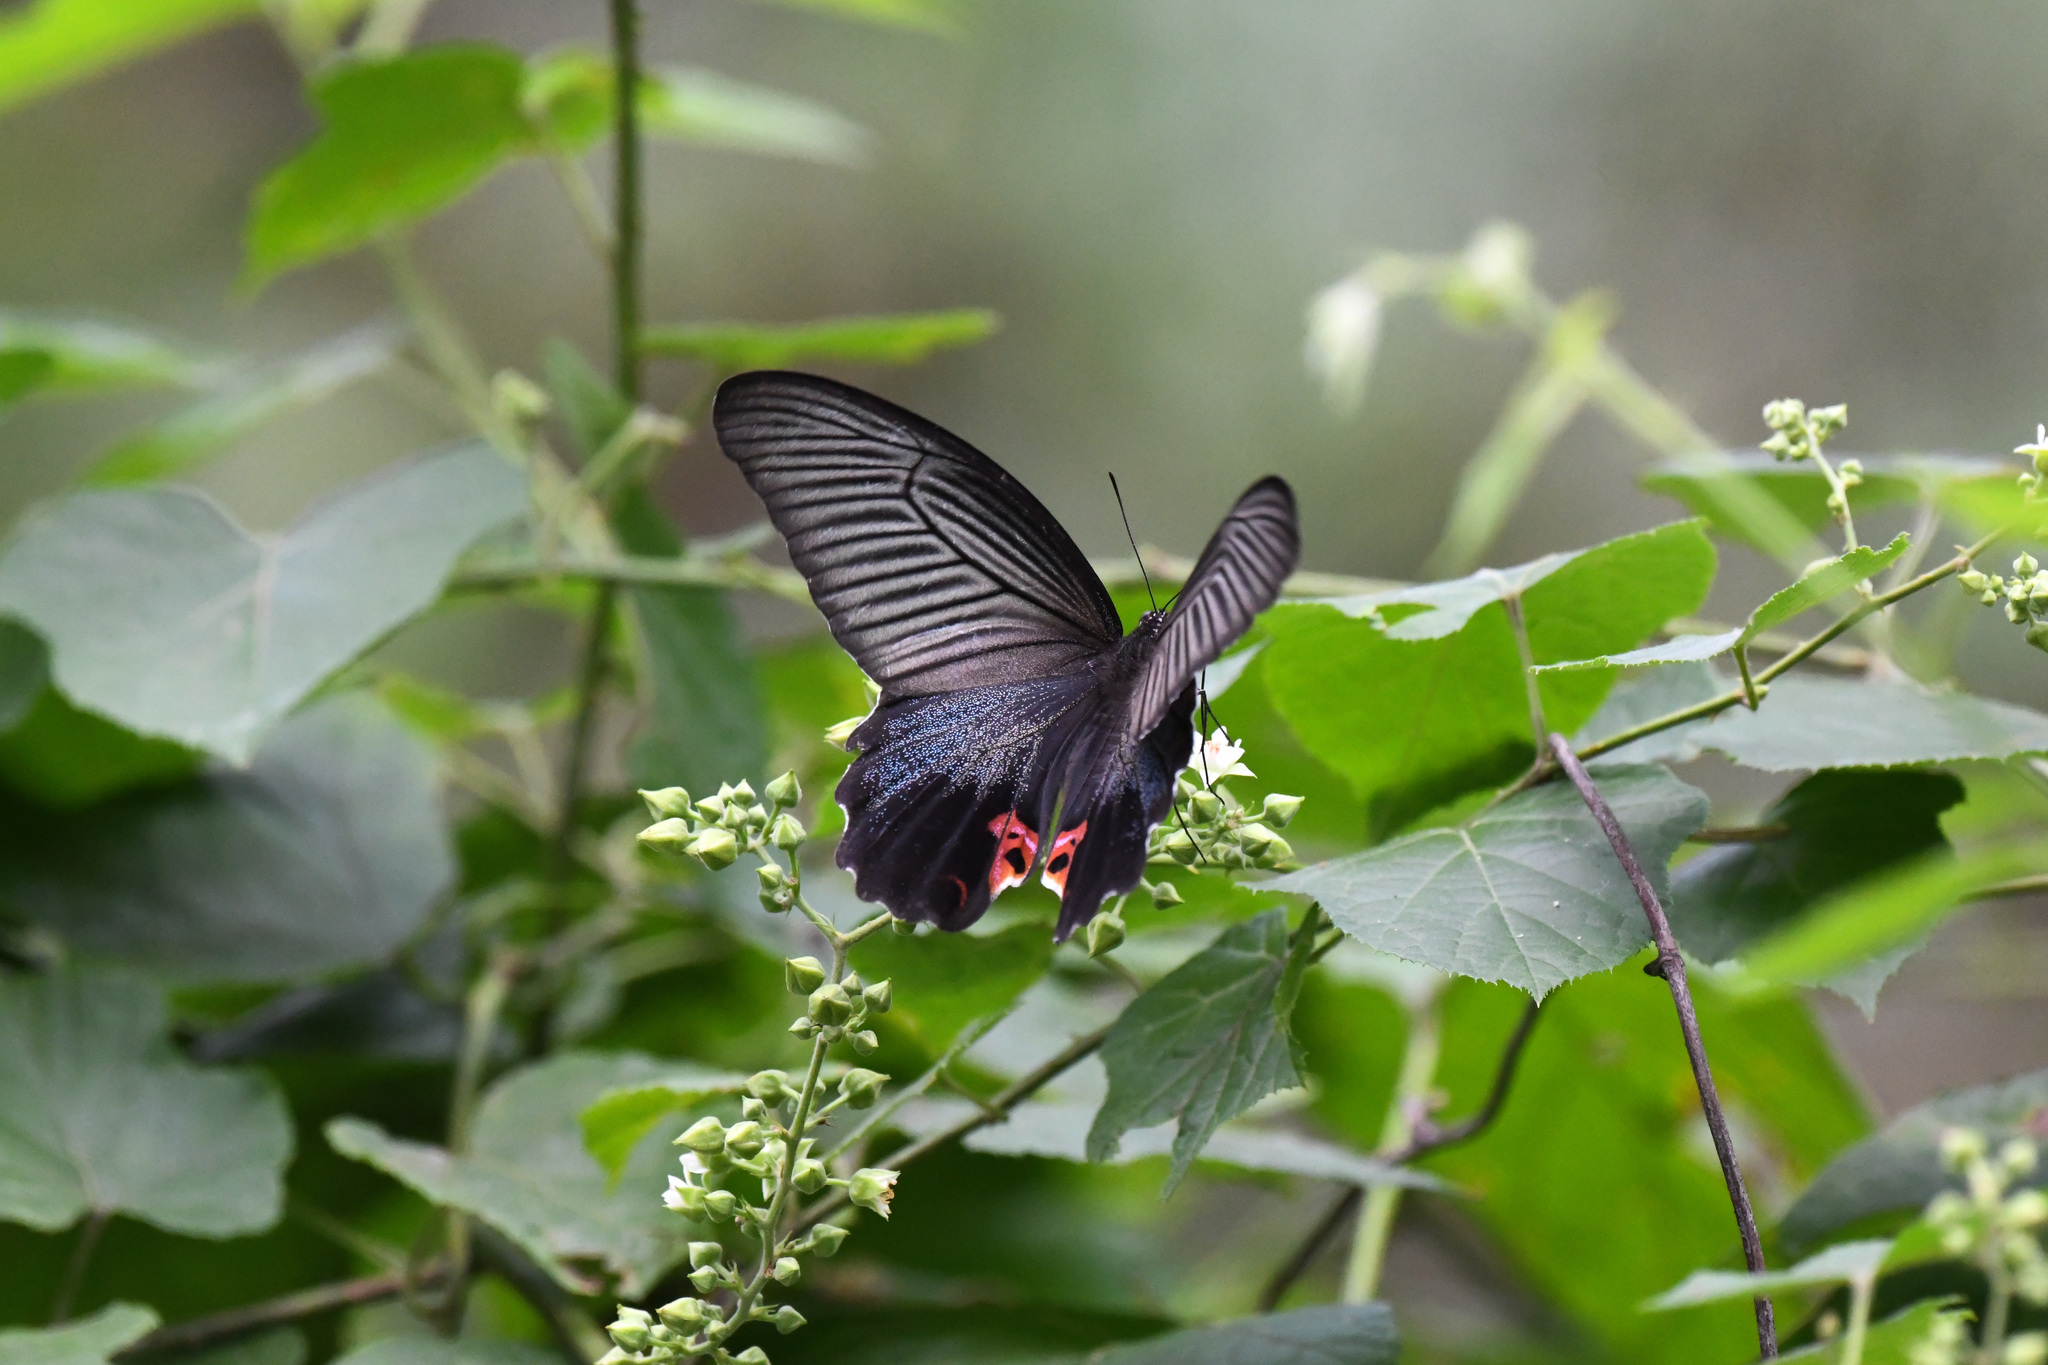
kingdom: Animalia
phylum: Arthropoda
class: Insecta
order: Lepidoptera
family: Papilionidae
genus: Papilio
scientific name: Papilio protenor
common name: Spangle
